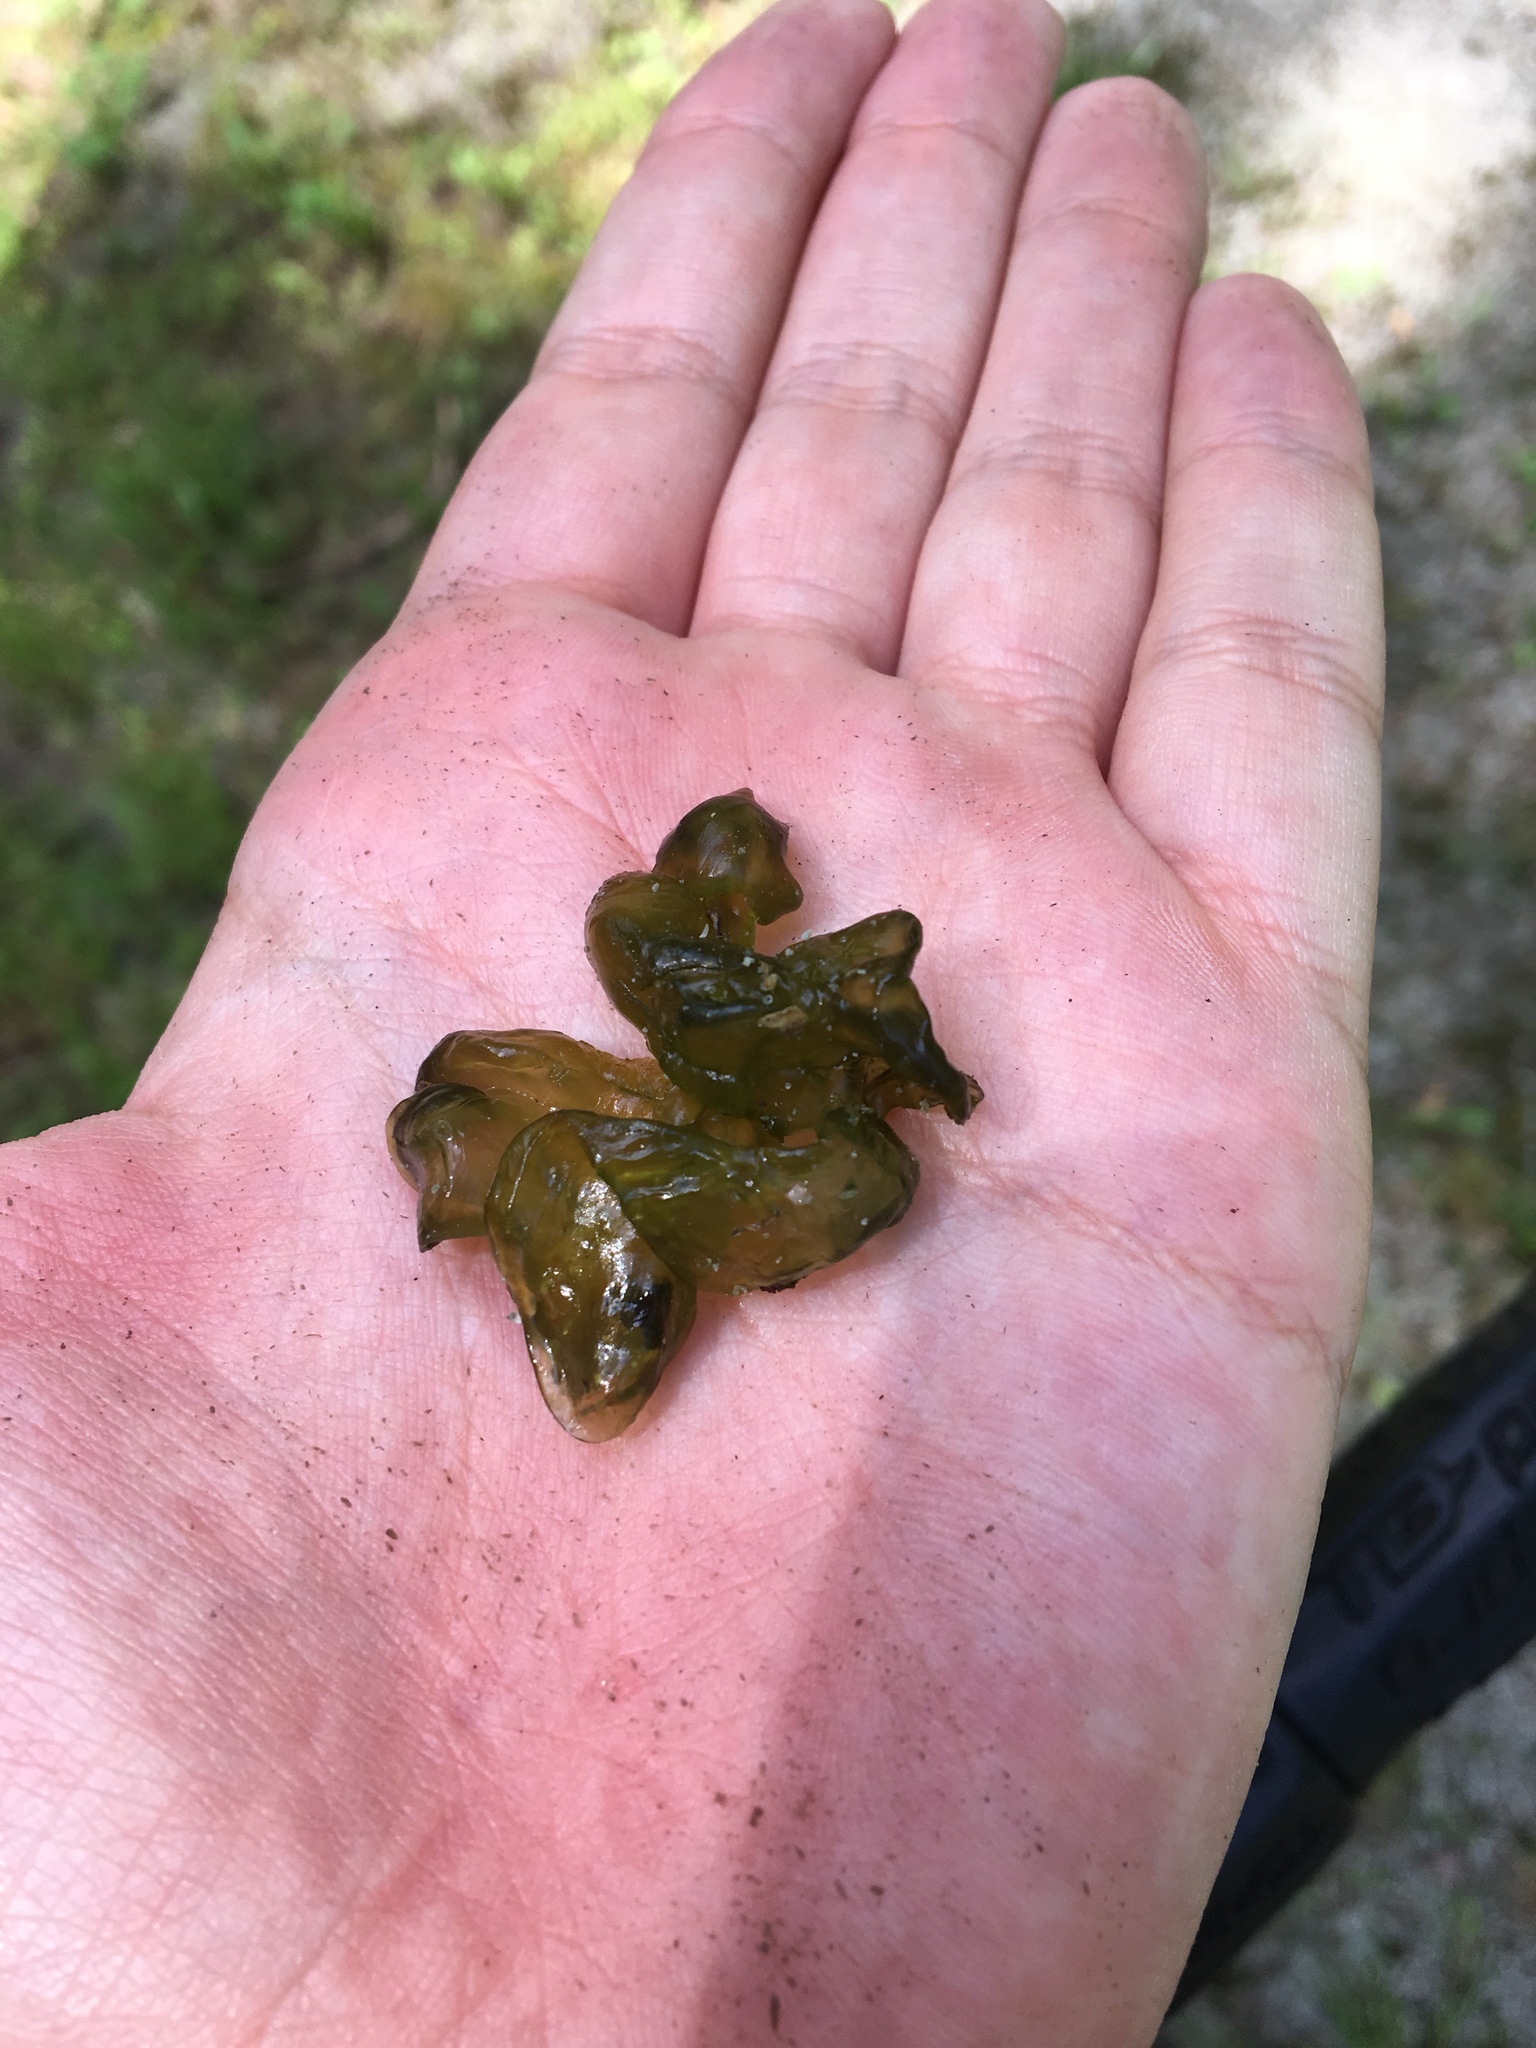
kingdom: Bacteria
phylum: Cyanobacteria
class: Cyanobacteriia
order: Cyanobacteriales
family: Nostocaceae
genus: Nostoc
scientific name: Nostoc commune
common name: Star jelly
